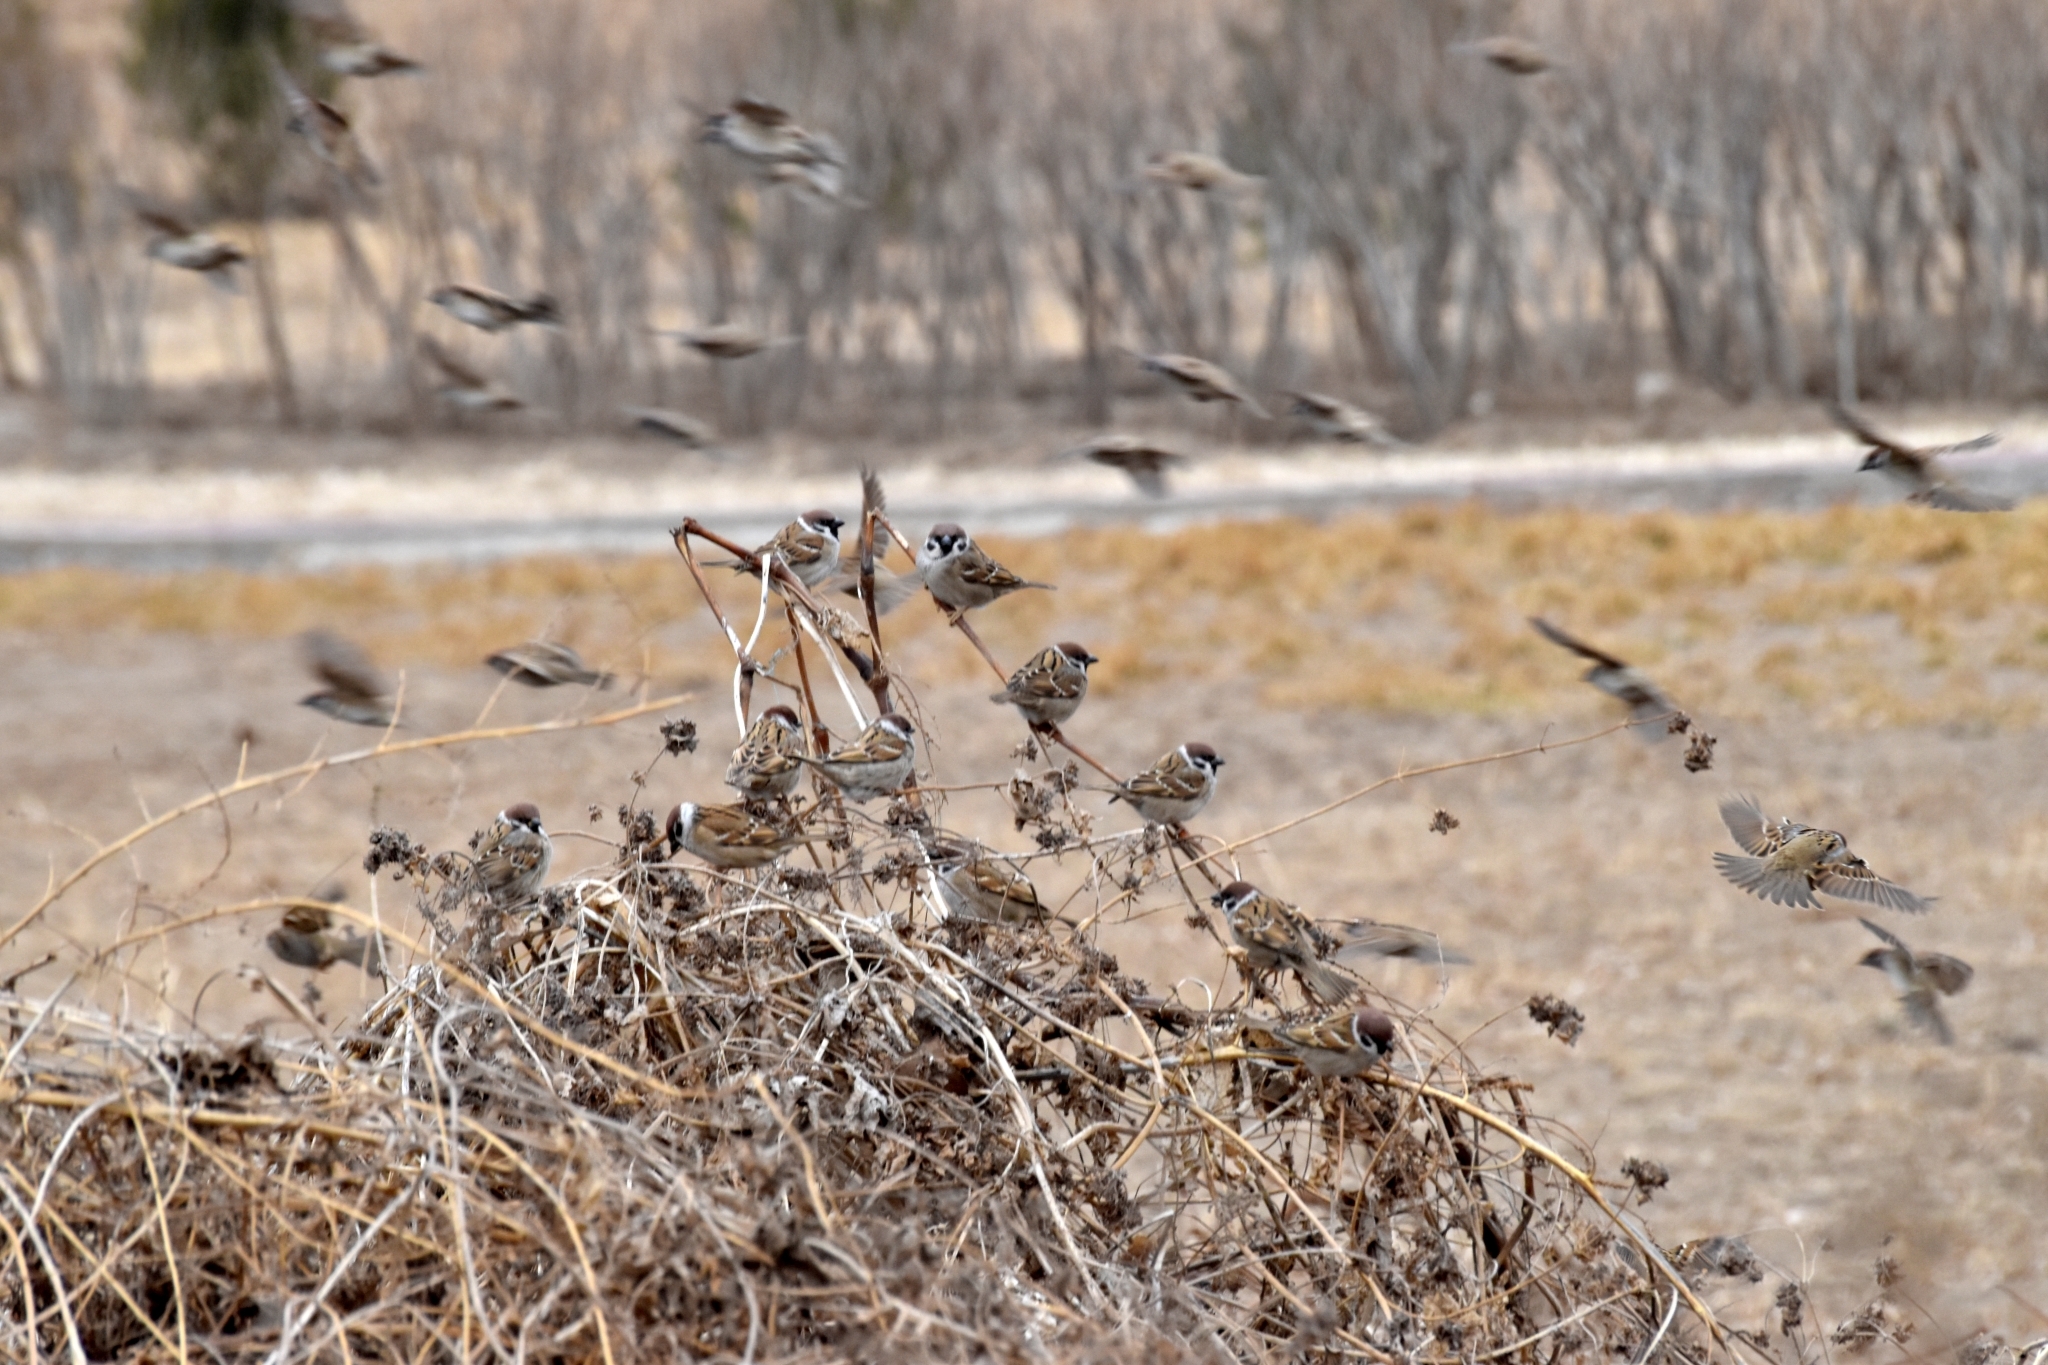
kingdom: Animalia
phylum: Chordata
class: Aves
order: Passeriformes
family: Passeridae
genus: Passer
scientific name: Passer montanus
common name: Eurasian tree sparrow
